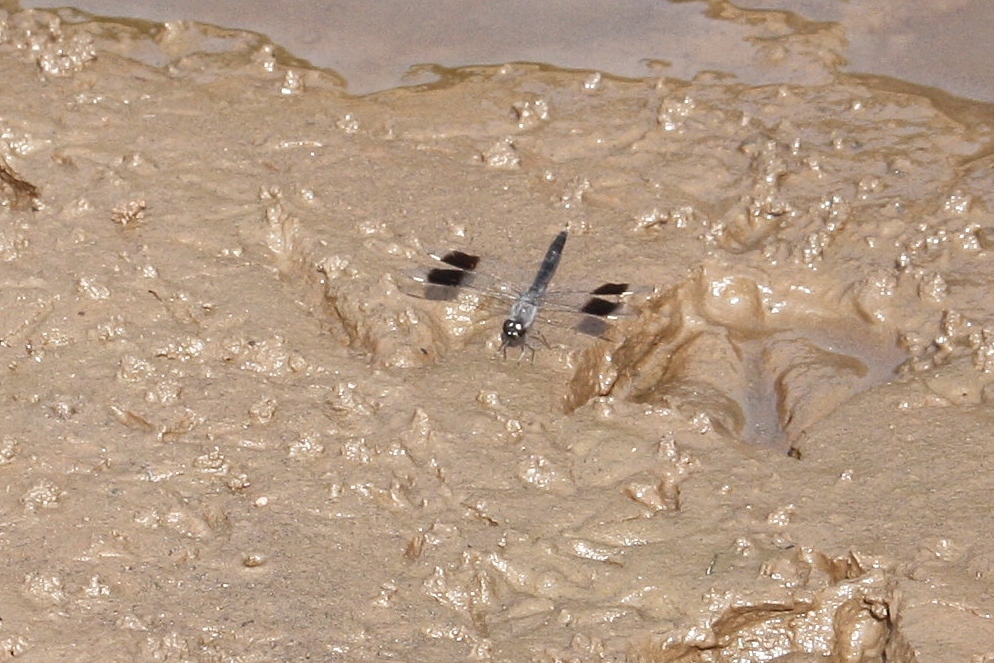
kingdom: Animalia
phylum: Arthropoda
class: Insecta
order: Odonata
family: Libellulidae
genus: Brachythemis
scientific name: Brachythemis leucosticta
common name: Banded groundling
